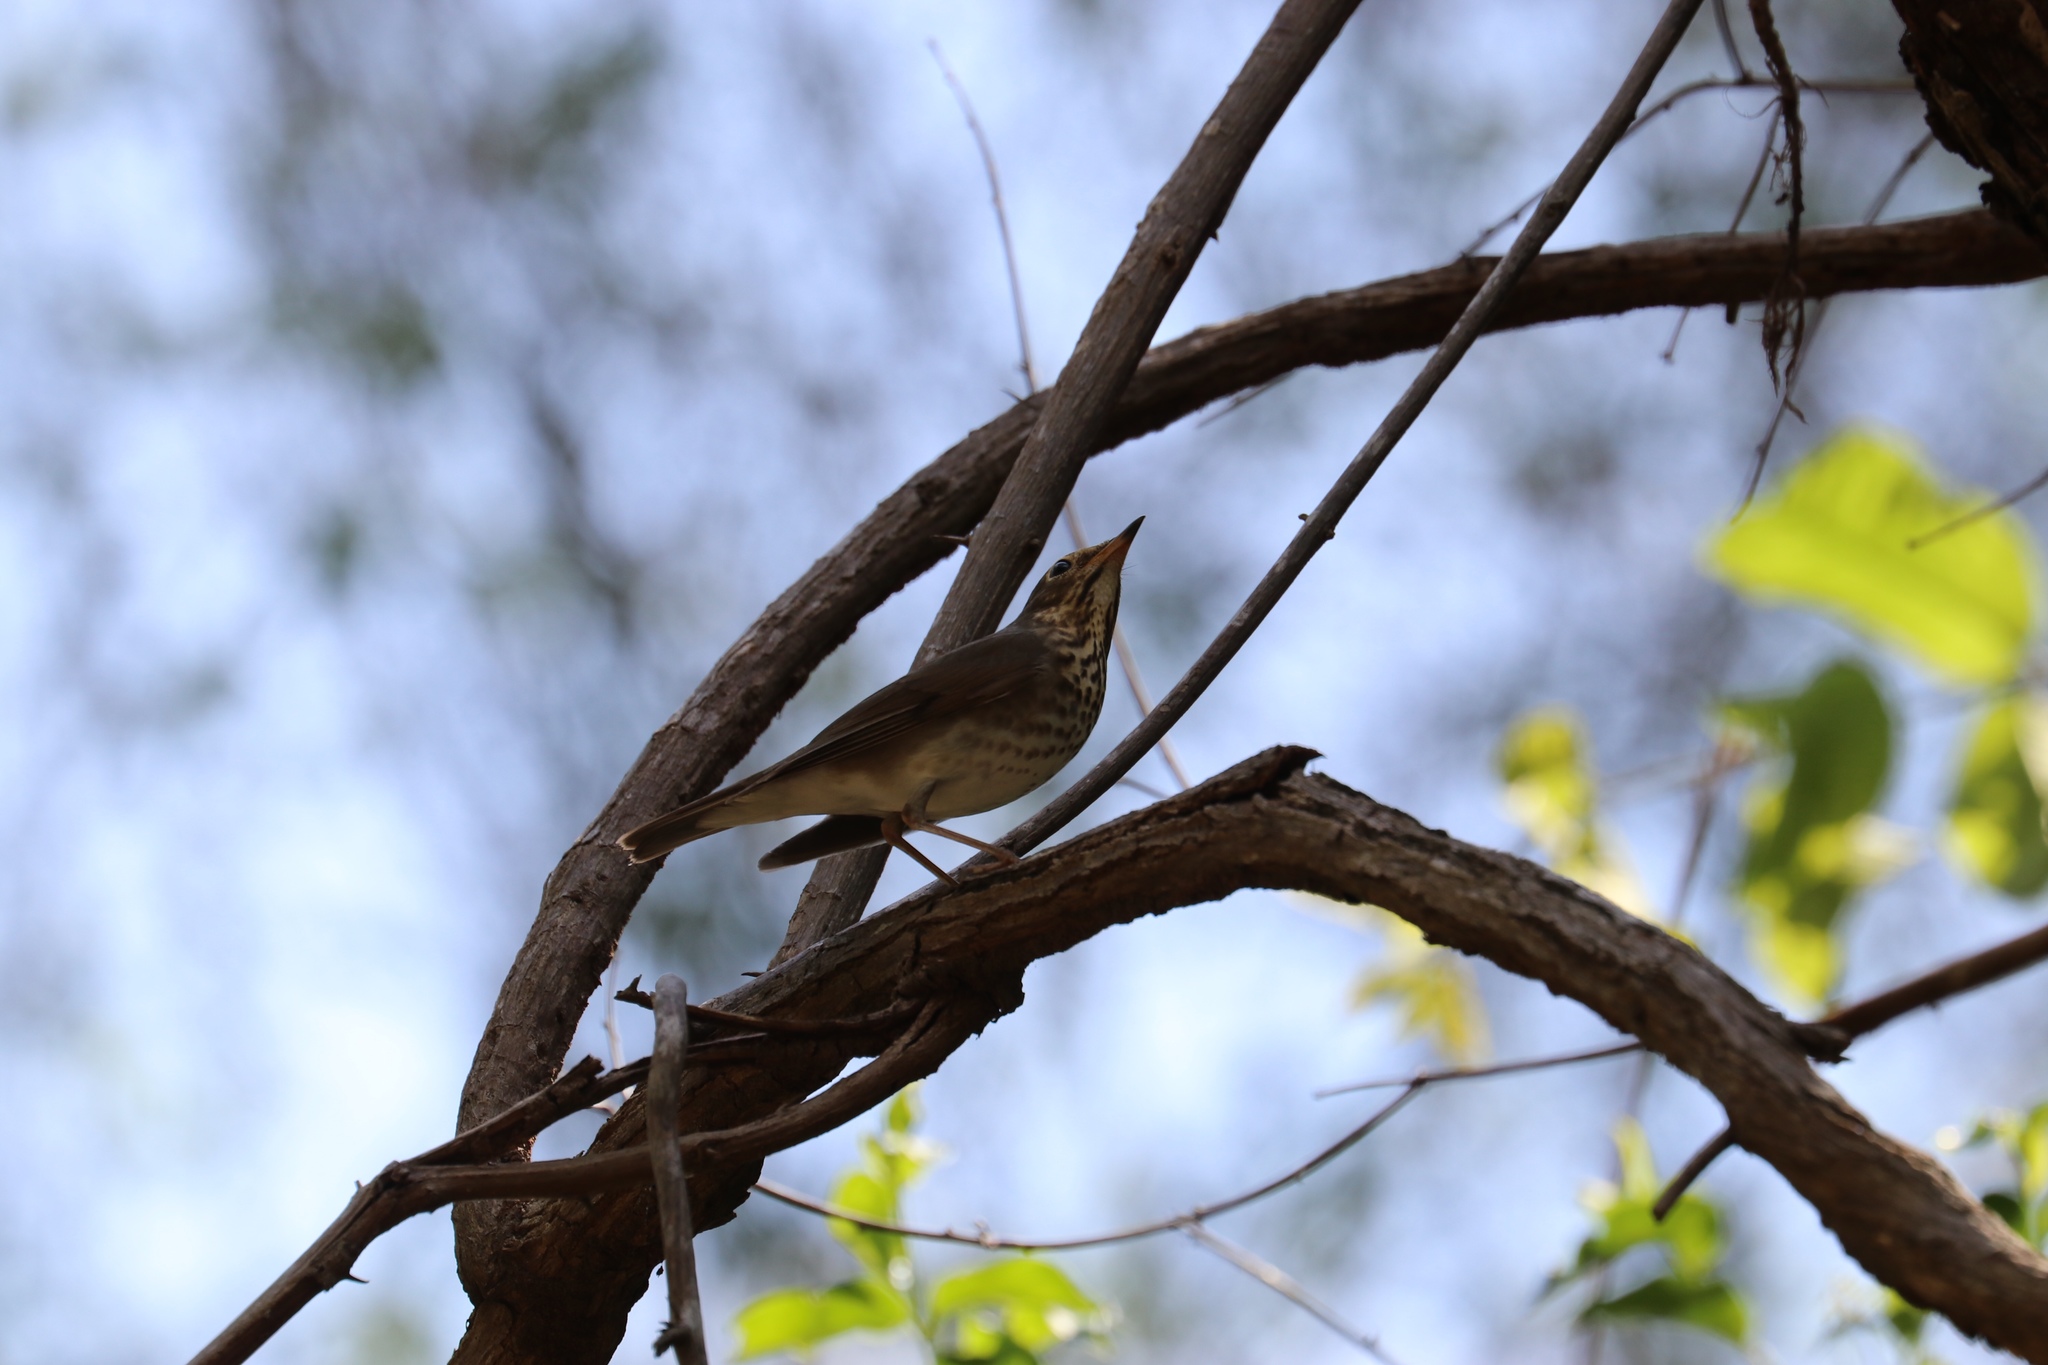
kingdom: Animalia
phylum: Chordata
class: Aves
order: Passeriformes
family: Turdidae
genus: Catharus
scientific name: Catharus ustulatus
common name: Swainson's thrush
